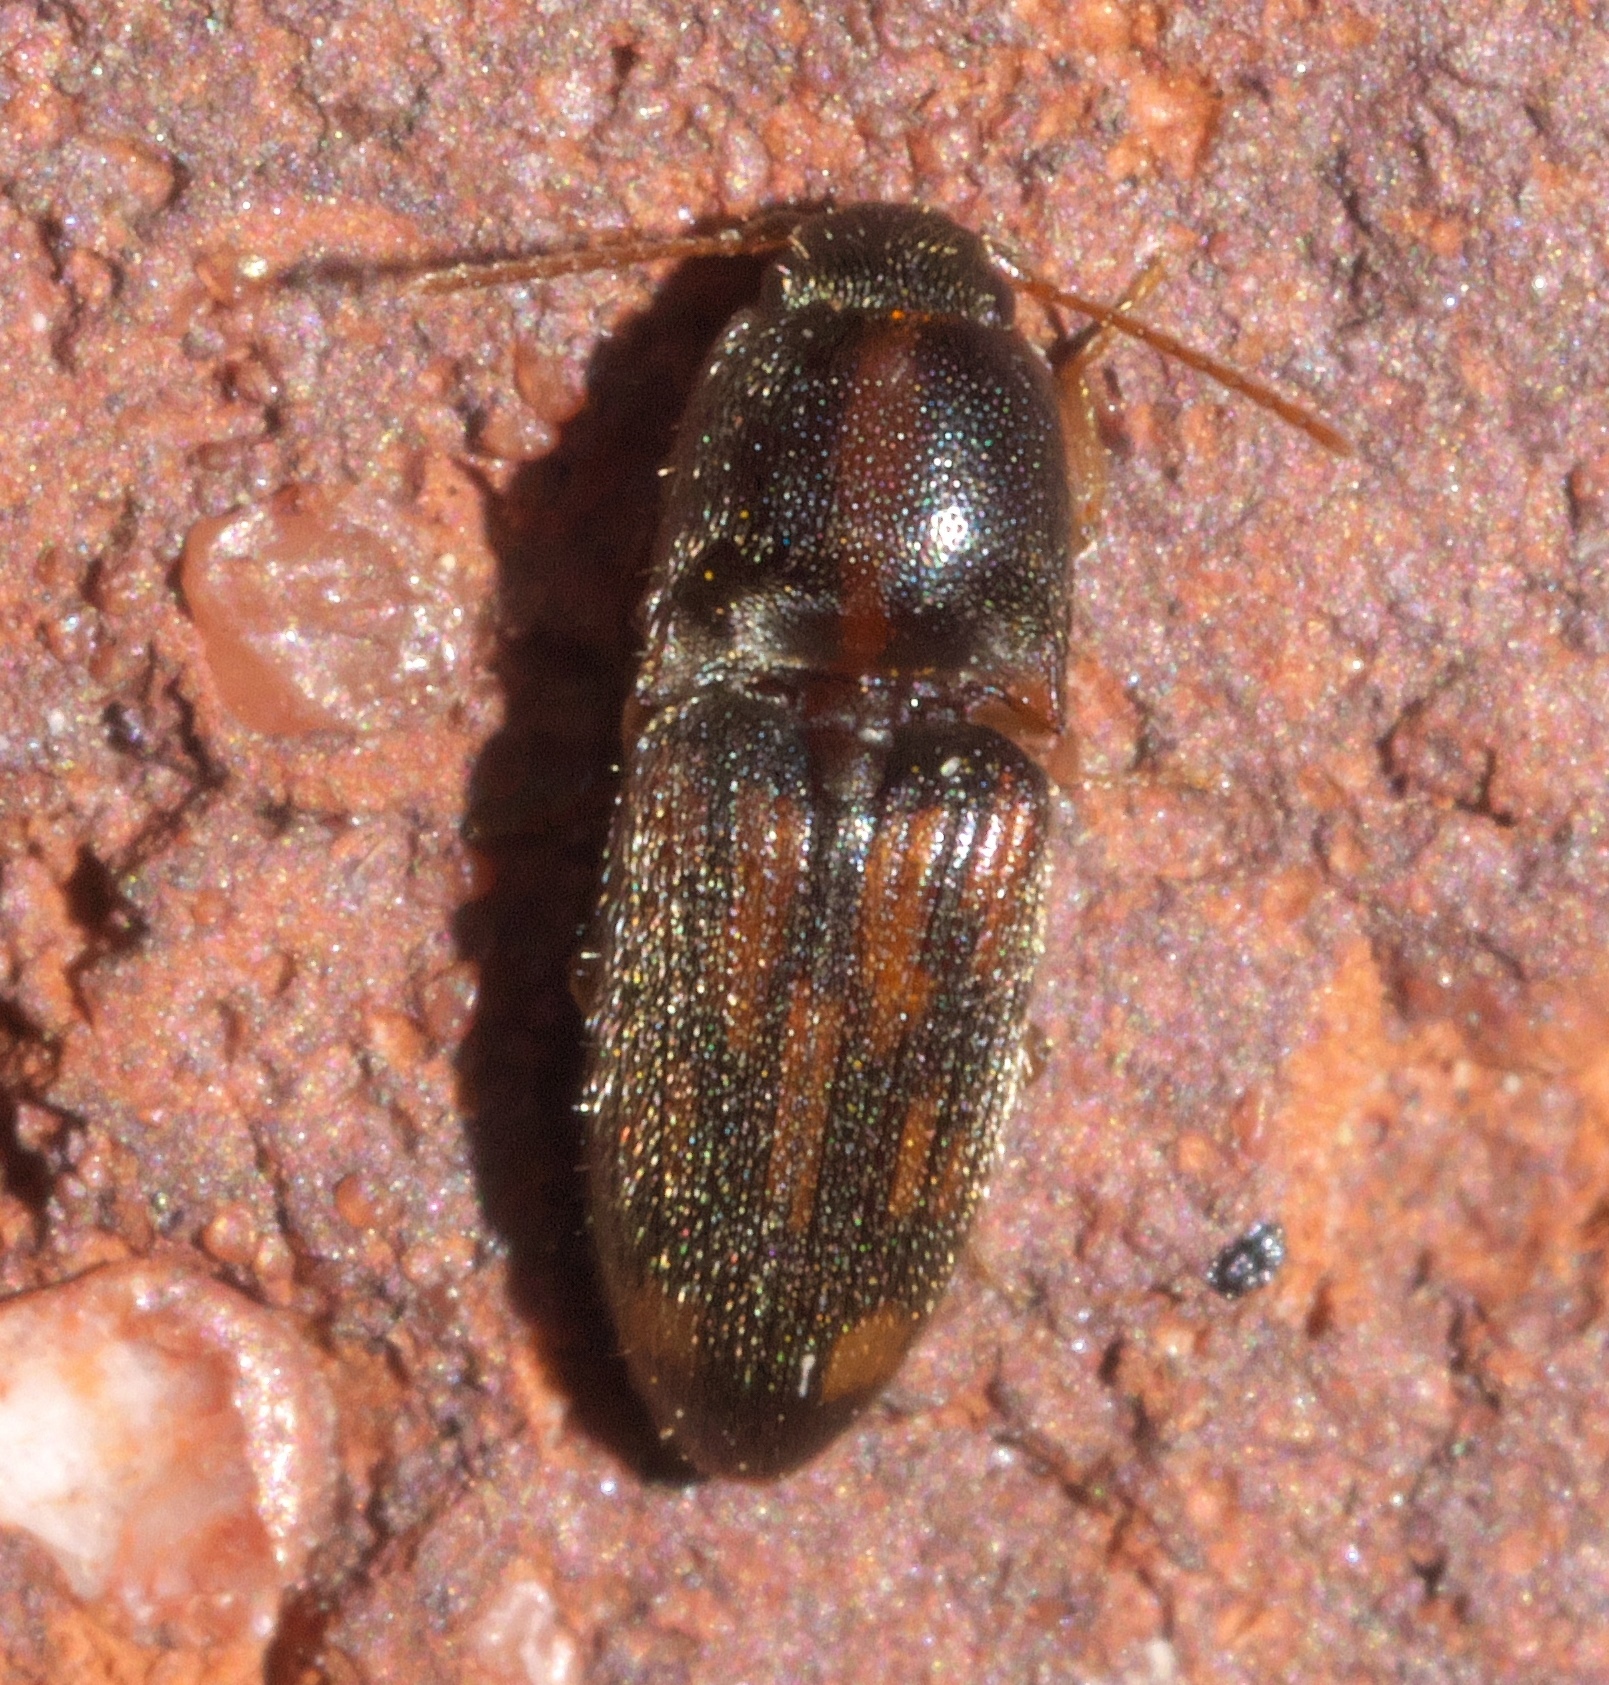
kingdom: Animalia
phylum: Arthropoda
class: Insecta
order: Coleoptera
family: Elateridae
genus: Monocrepidius
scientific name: Monocrepidius bellus
